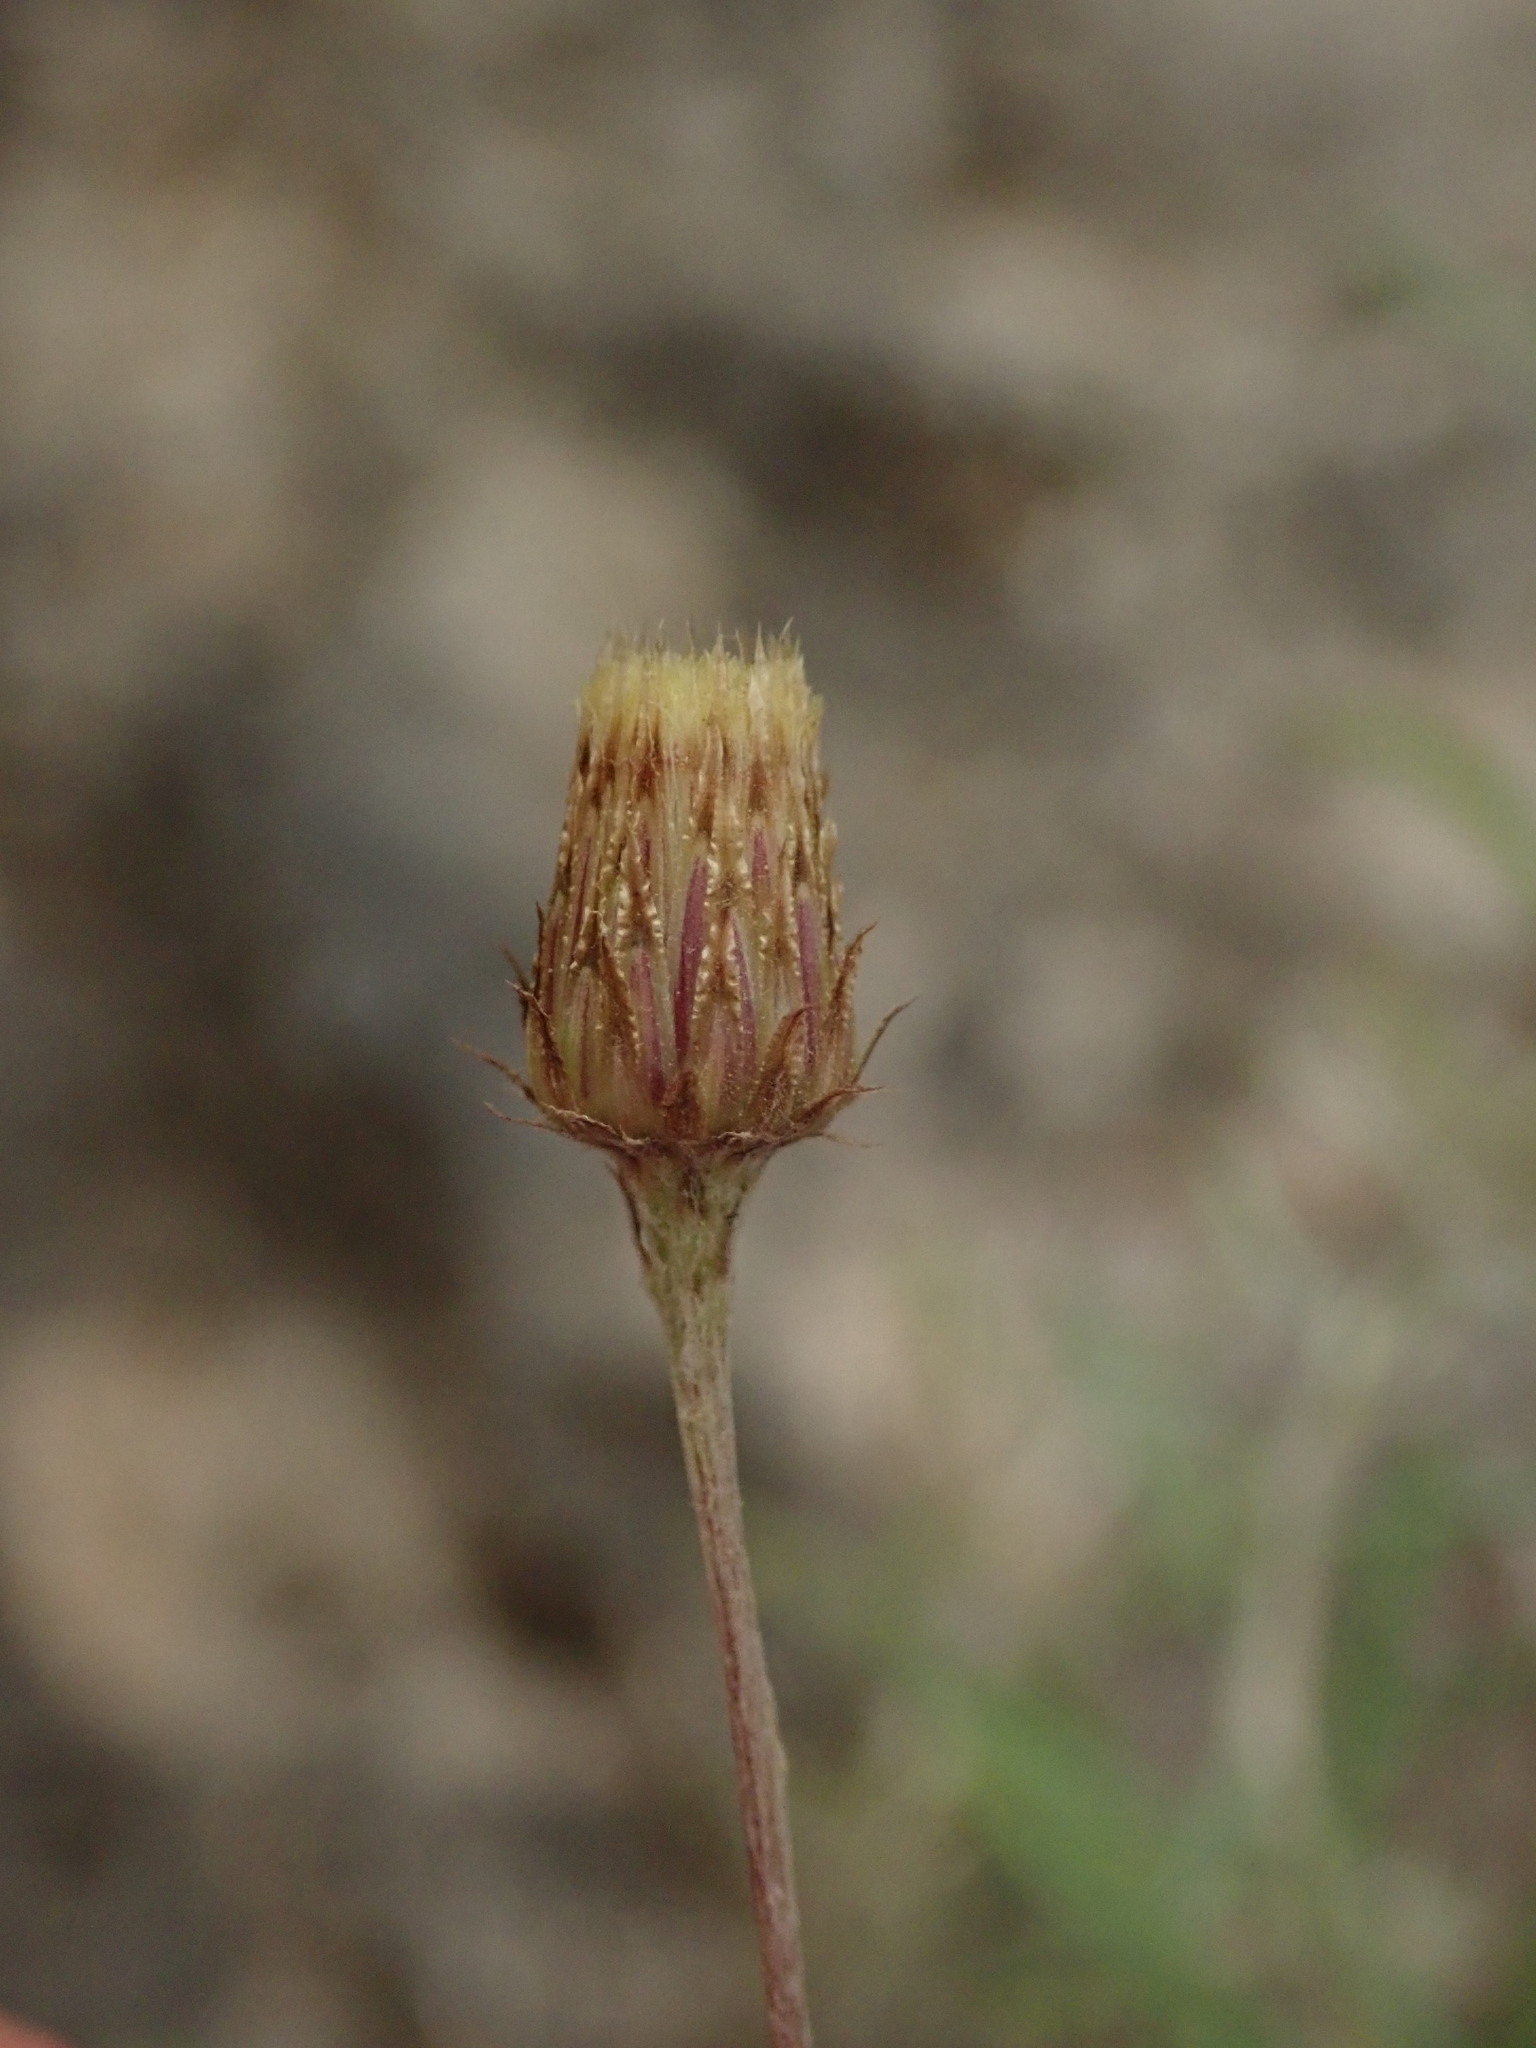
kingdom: Plantae
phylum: Tracheophyta
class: Magnoliopsida
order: Asterales
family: Asteraceae
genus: Phagnalon
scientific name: Phagnalon saxatile
